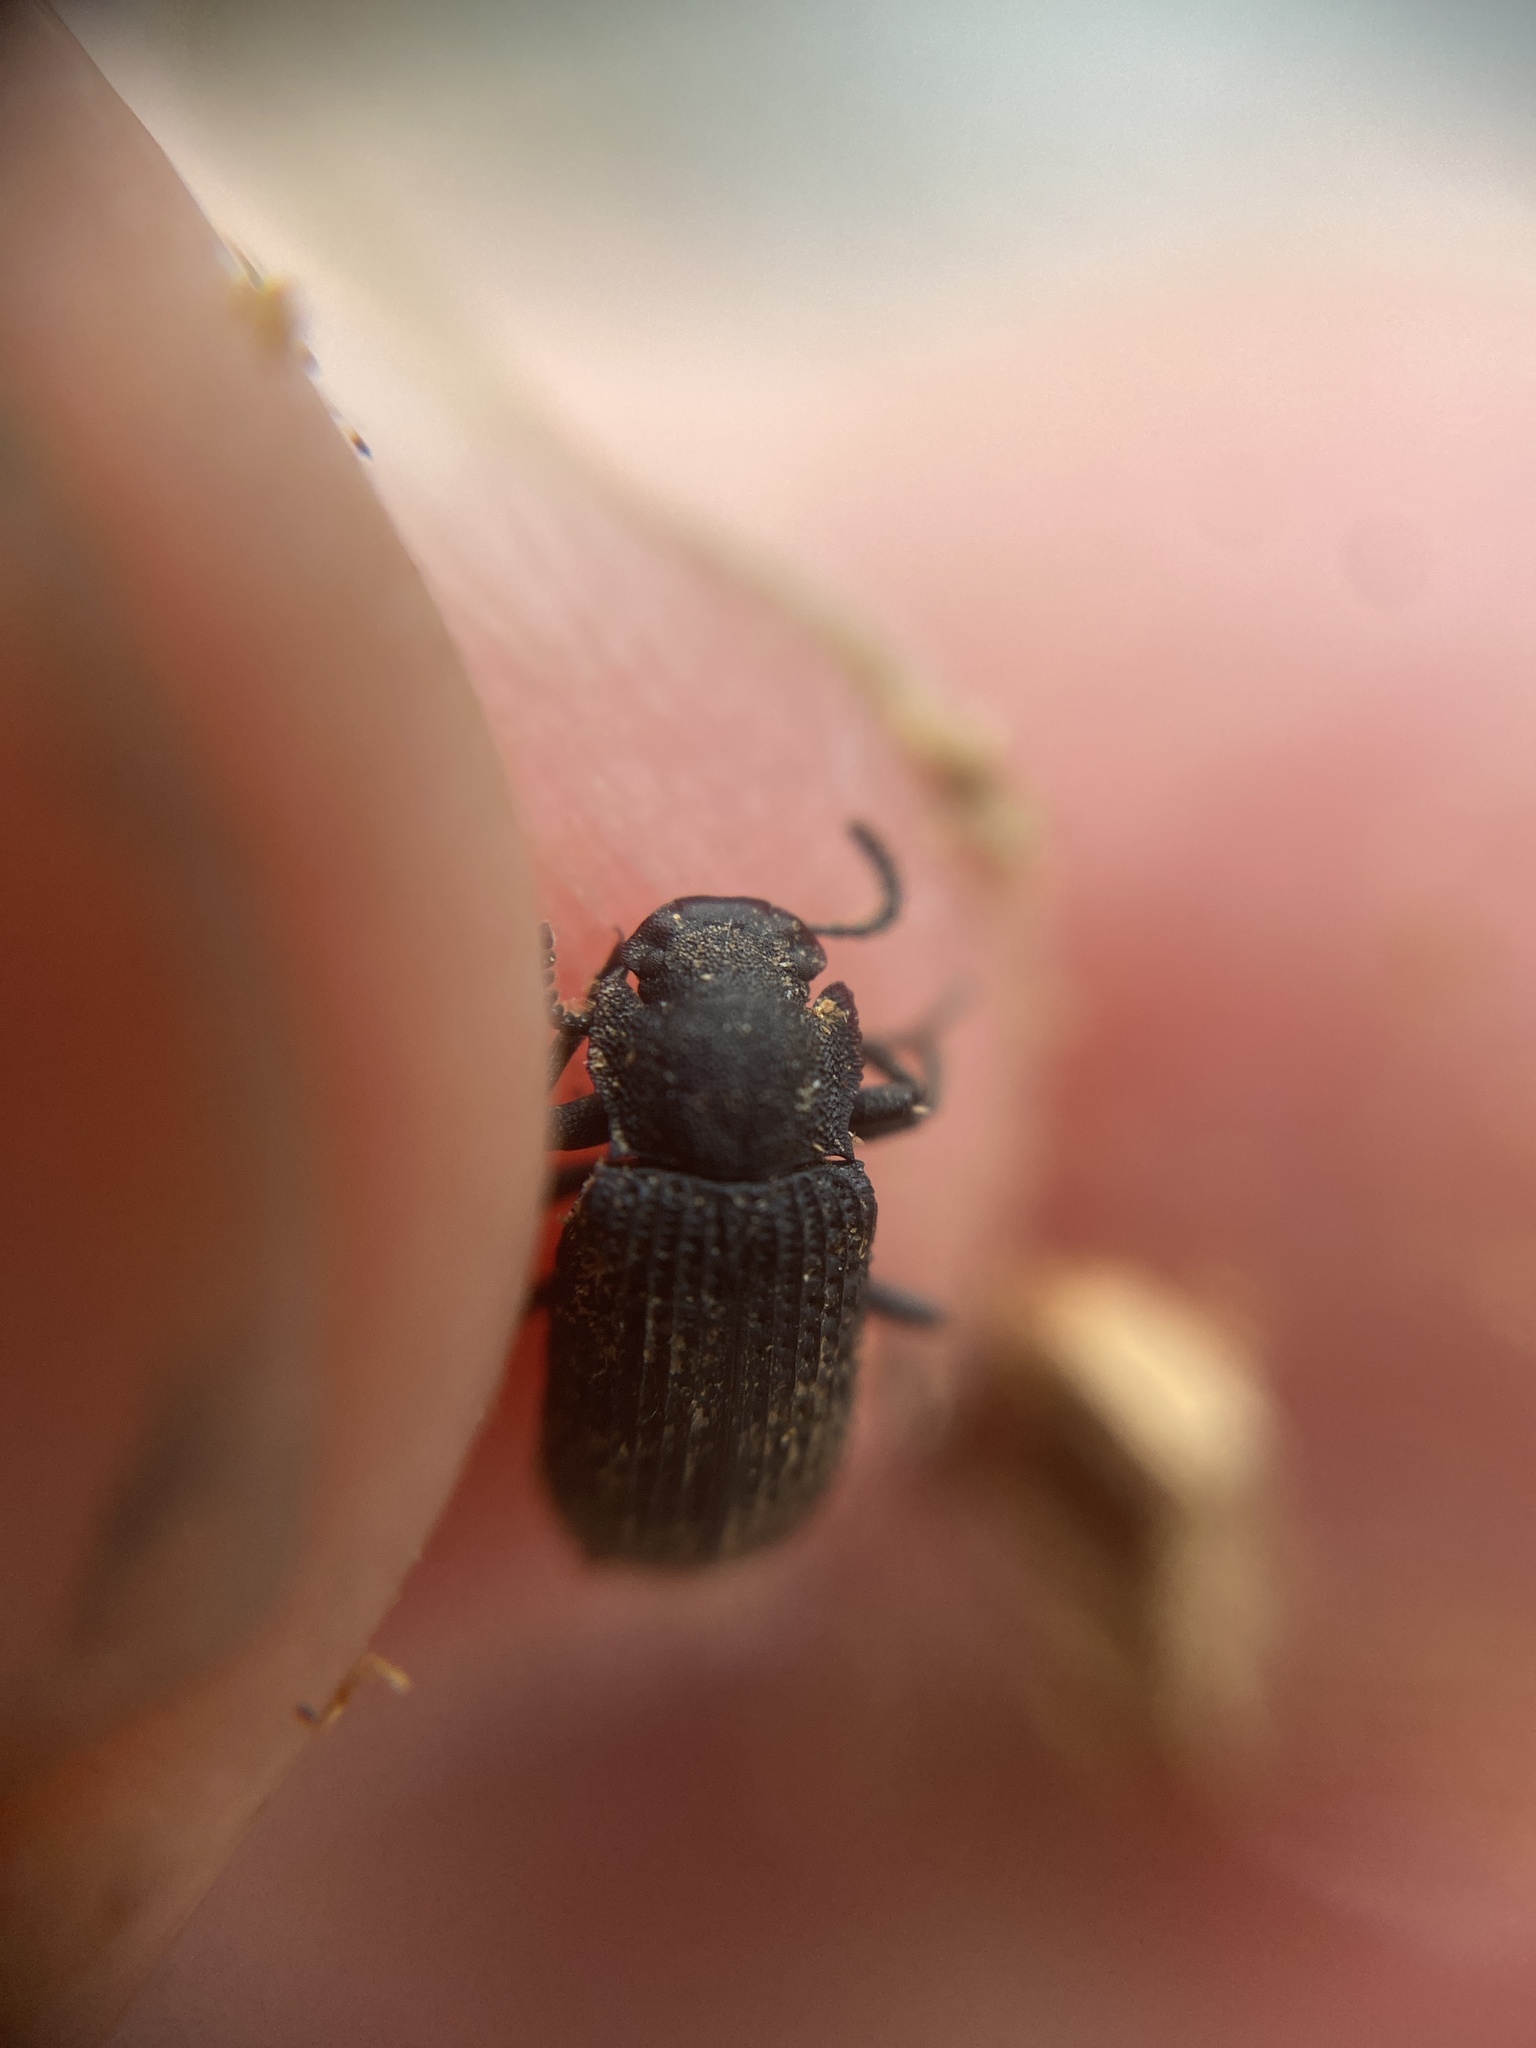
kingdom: Animalia
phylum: Arthropoda
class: Insecta
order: Coleoptera
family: Tenebrionidae
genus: Bolitophagus
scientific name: Bolitophagus reticulatus
